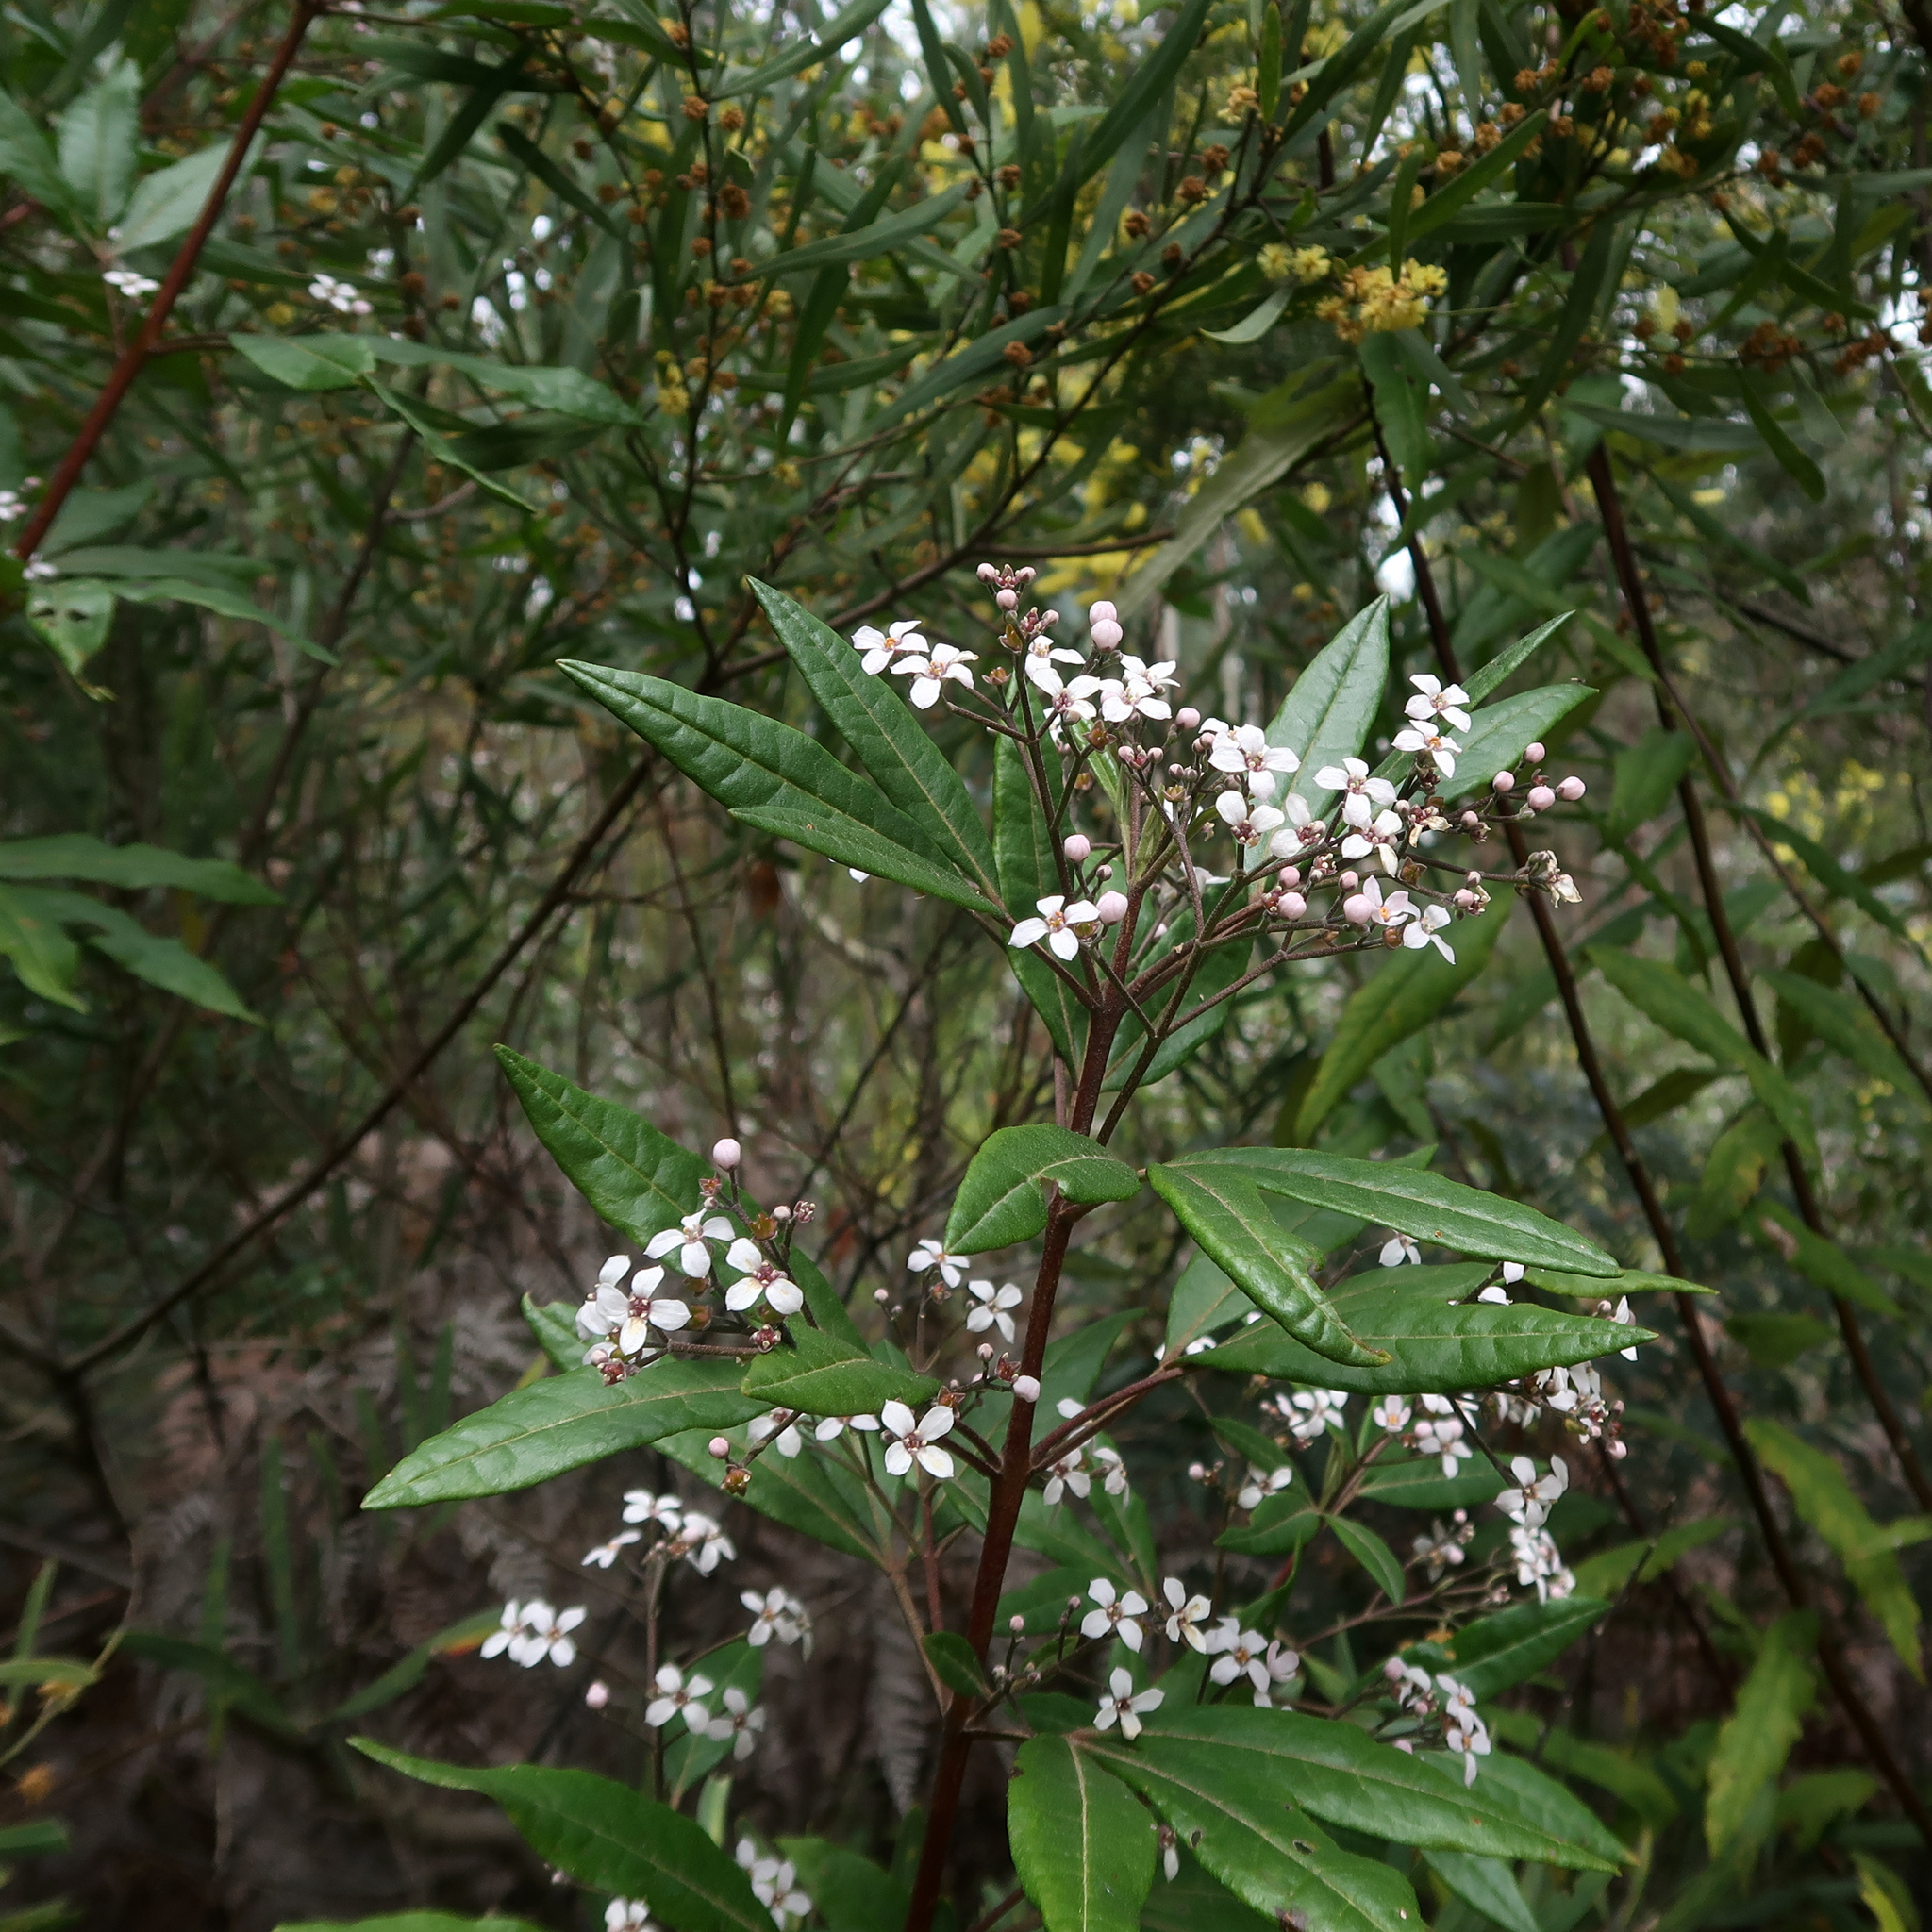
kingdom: Plantae
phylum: Tracheophyta
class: Magnoliopsida
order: Sapindales
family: Rutaceae
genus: Zieria
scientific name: Zieria arborescens
